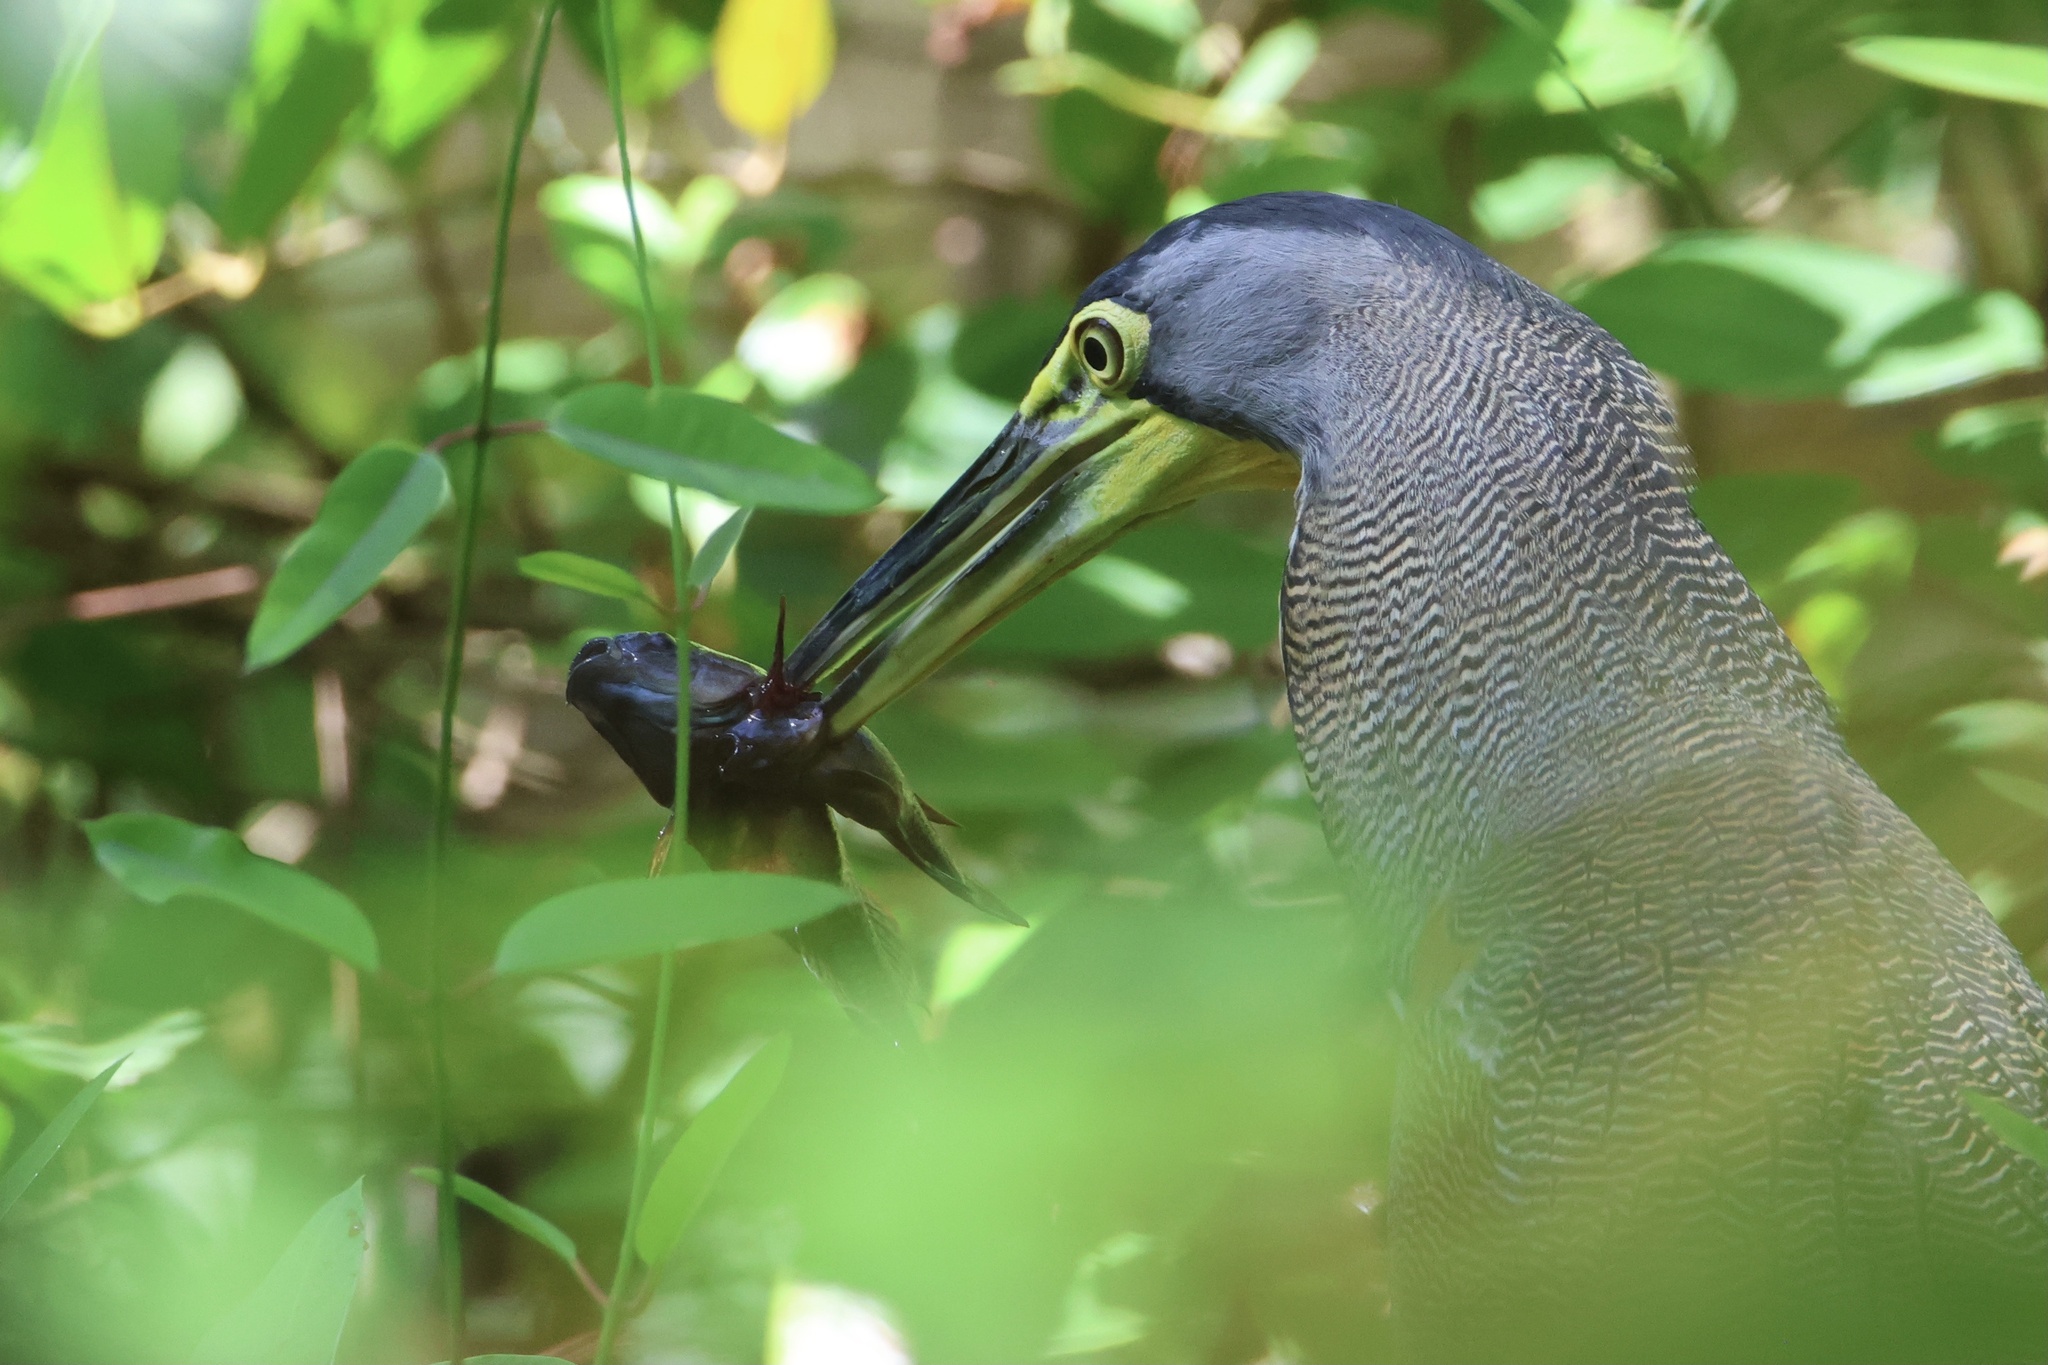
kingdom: Animalia
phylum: Chordata
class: Aves
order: Pelecaniformes
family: Ardeidae
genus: Tigrisoma
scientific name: Tigrisoma mexicanum
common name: Bare-throated tiger-heron
